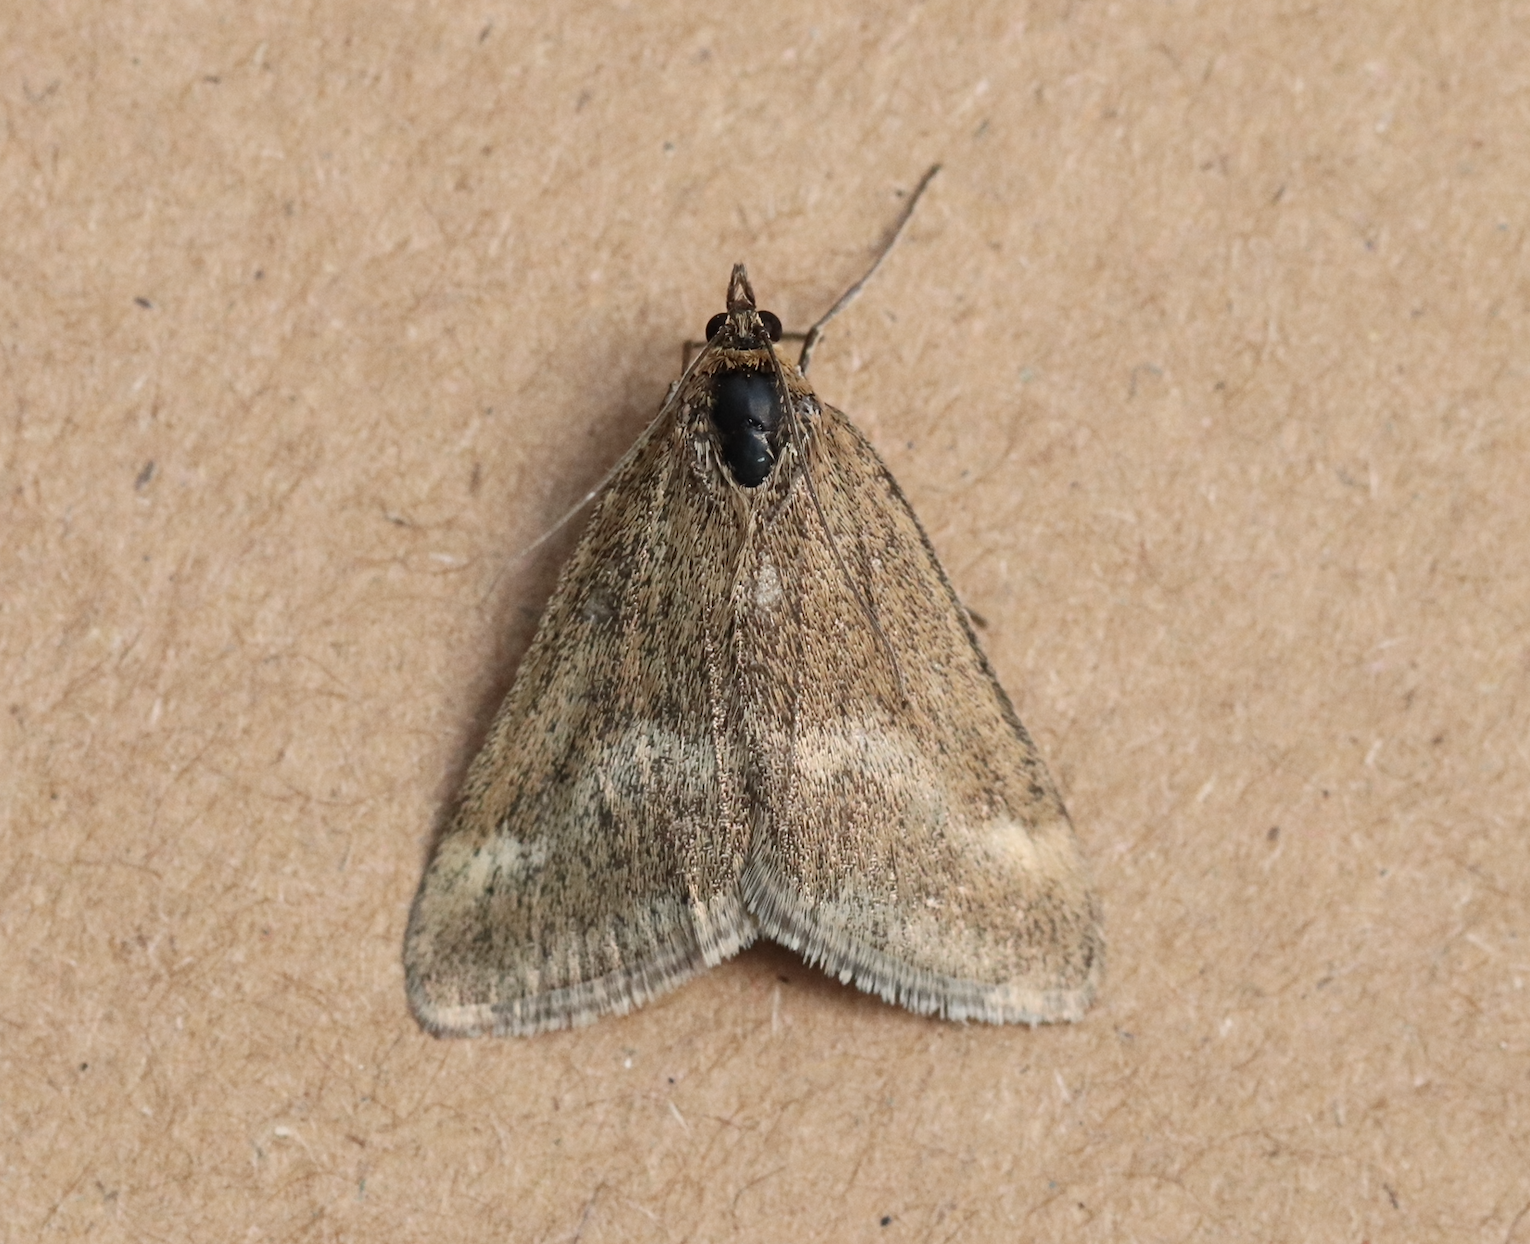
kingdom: Animalia
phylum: Arthropoda
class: Insecta
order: Lepidoptera
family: Crambidae
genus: Pyrausta
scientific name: Pyrausta aerealis
